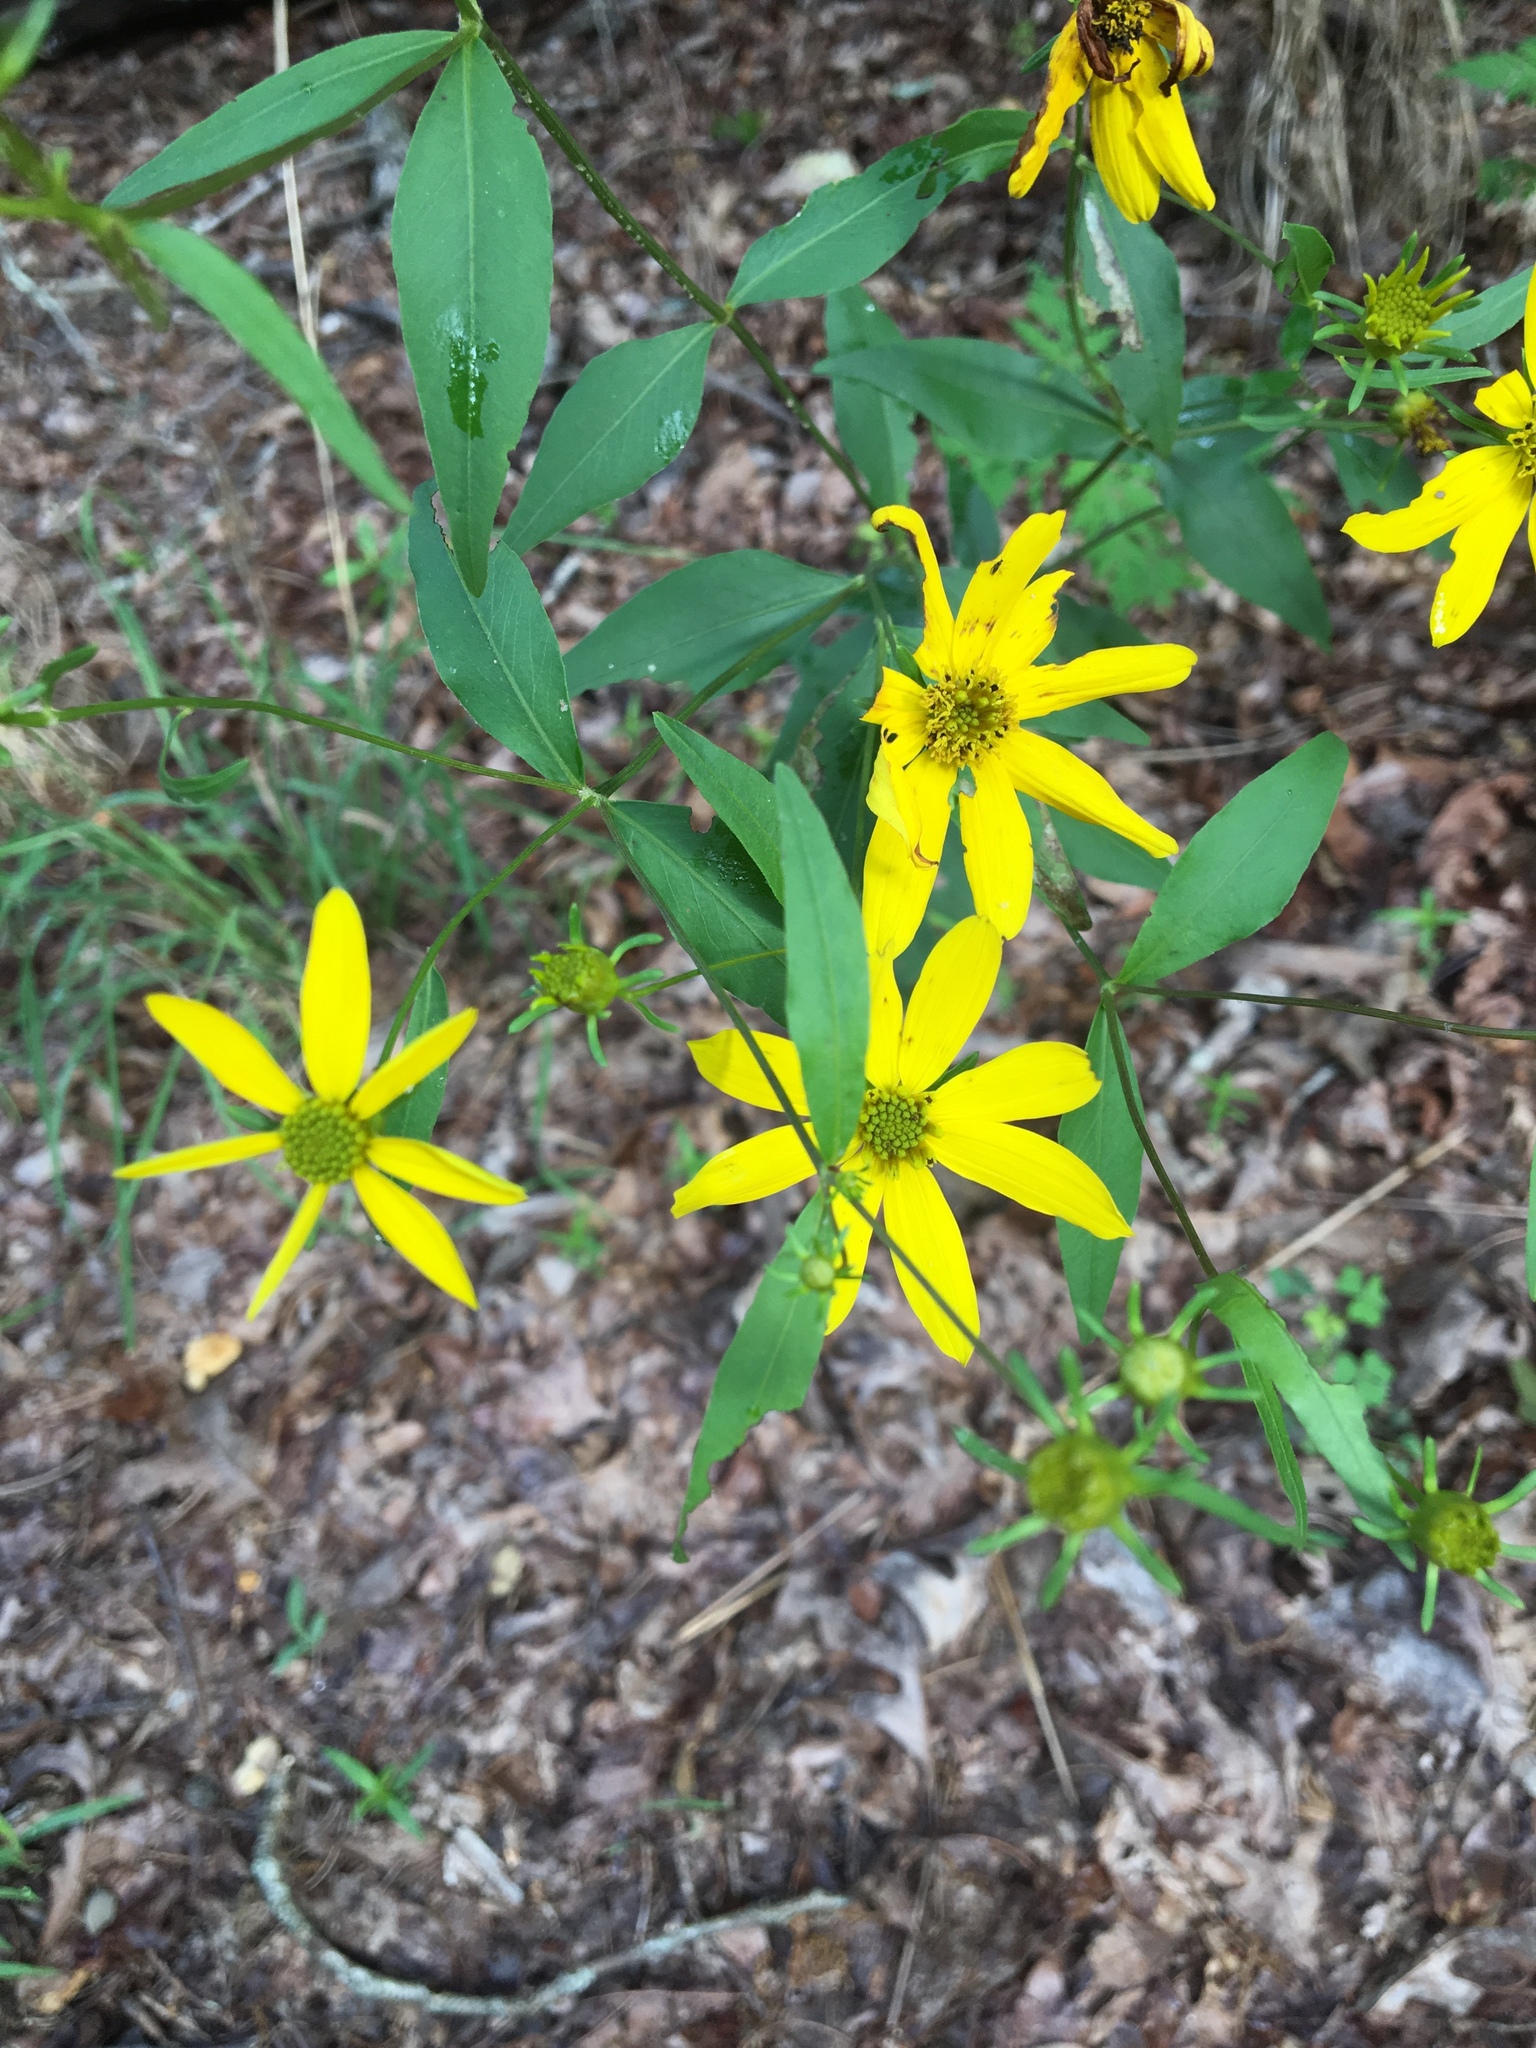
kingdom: Plantae
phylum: Tracheophyta
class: Magnoliopsida
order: Asterales
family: Asteraceae
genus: Coreopsis
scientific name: Coreopsis major
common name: Forest tickseed
